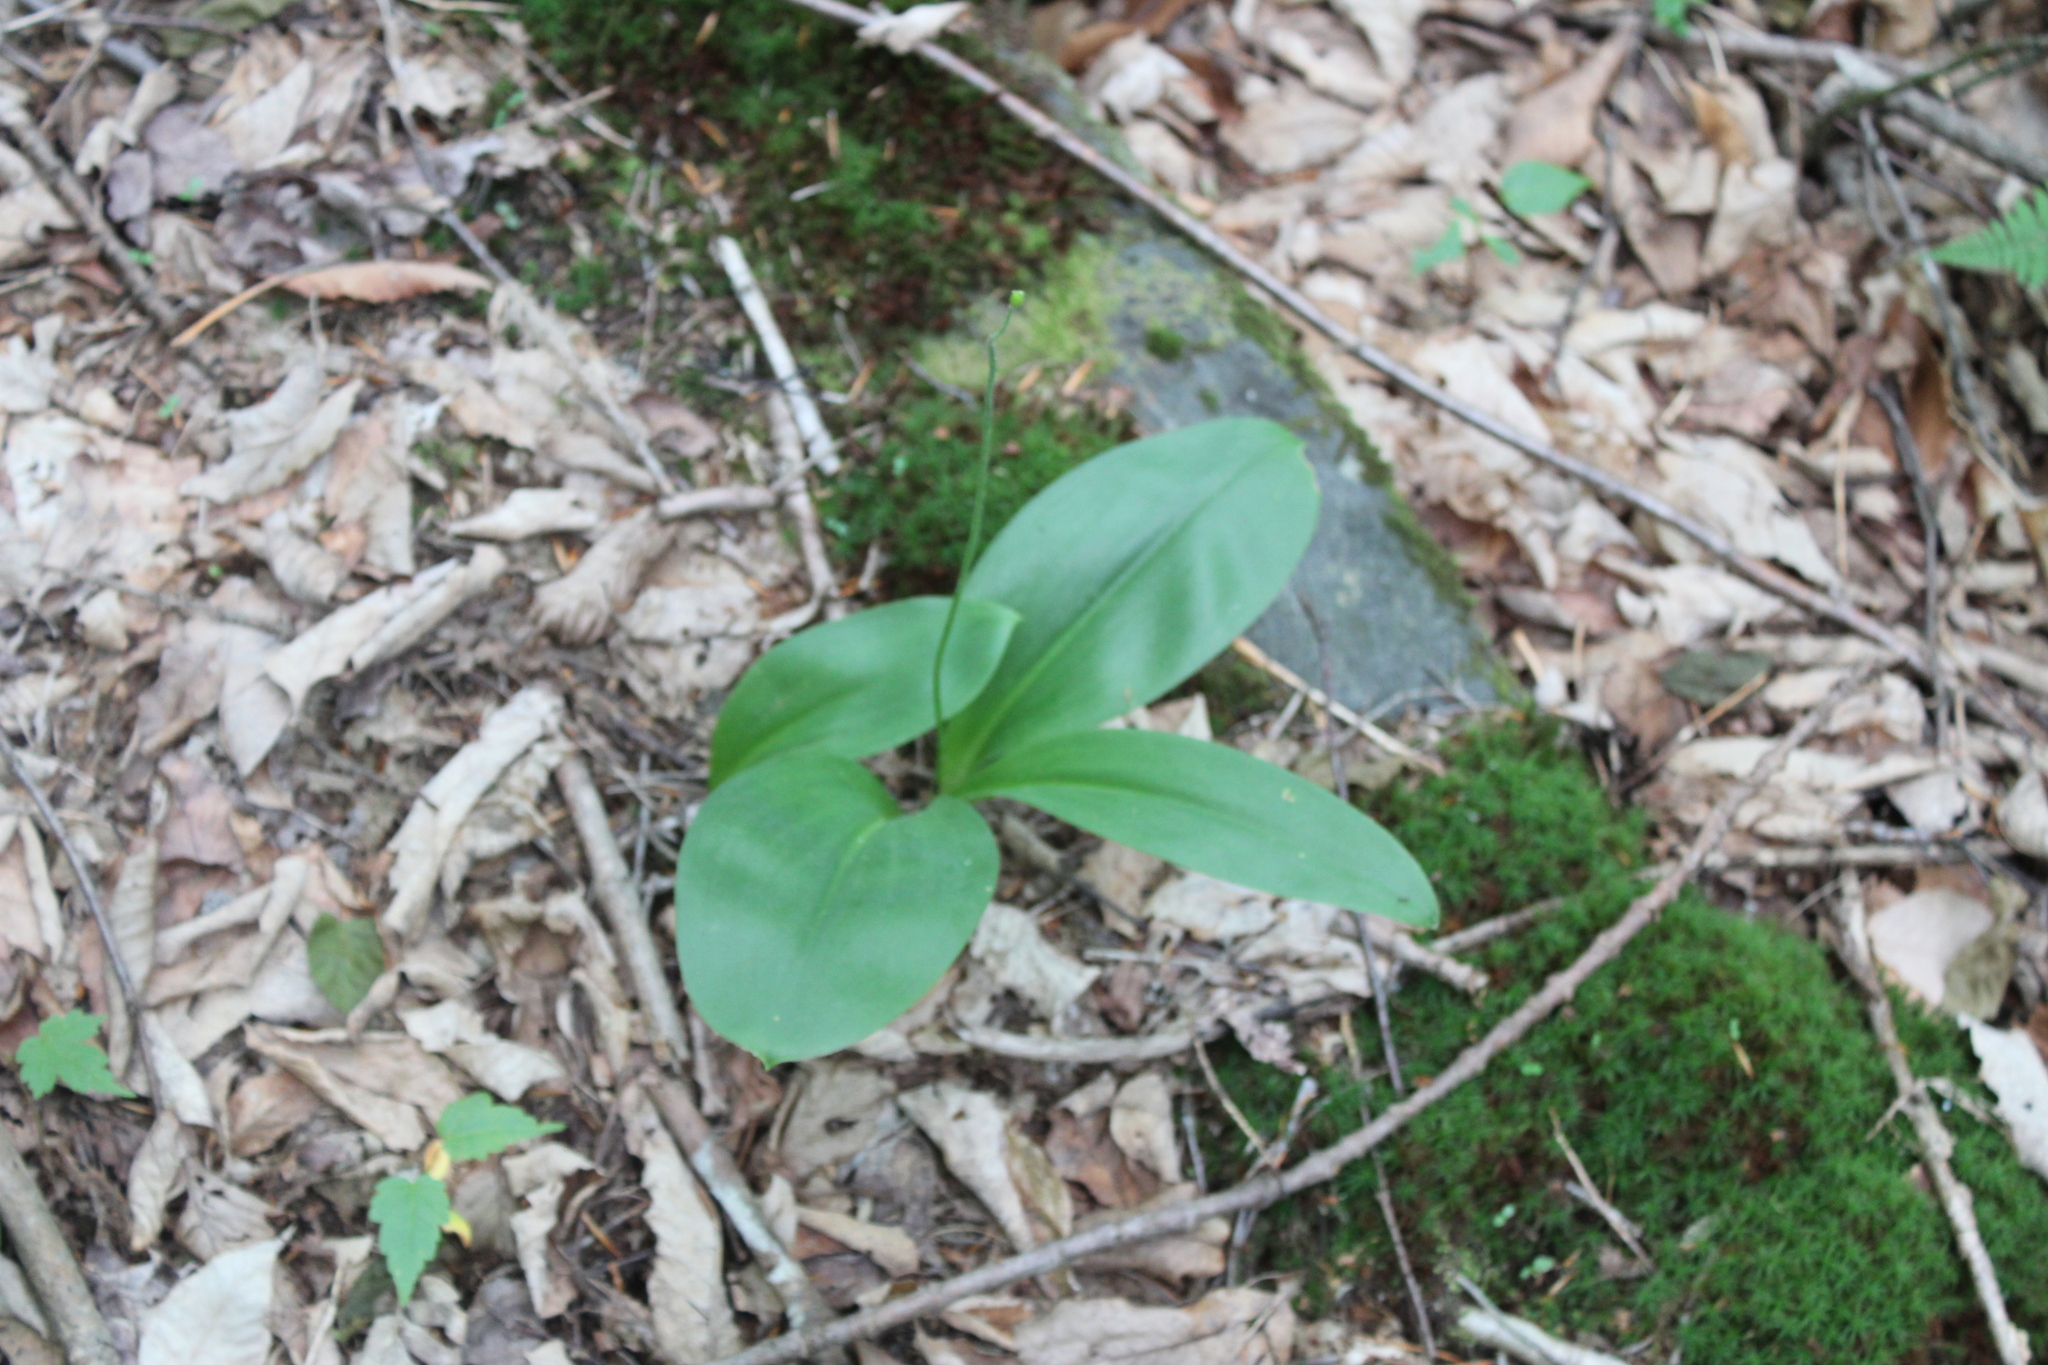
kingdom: Plantae
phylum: Tracheophyta
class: Liliopsida
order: Liliales
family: Liliaceae
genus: Clintonia
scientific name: Clintonia borealis
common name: Yellow clintonia
